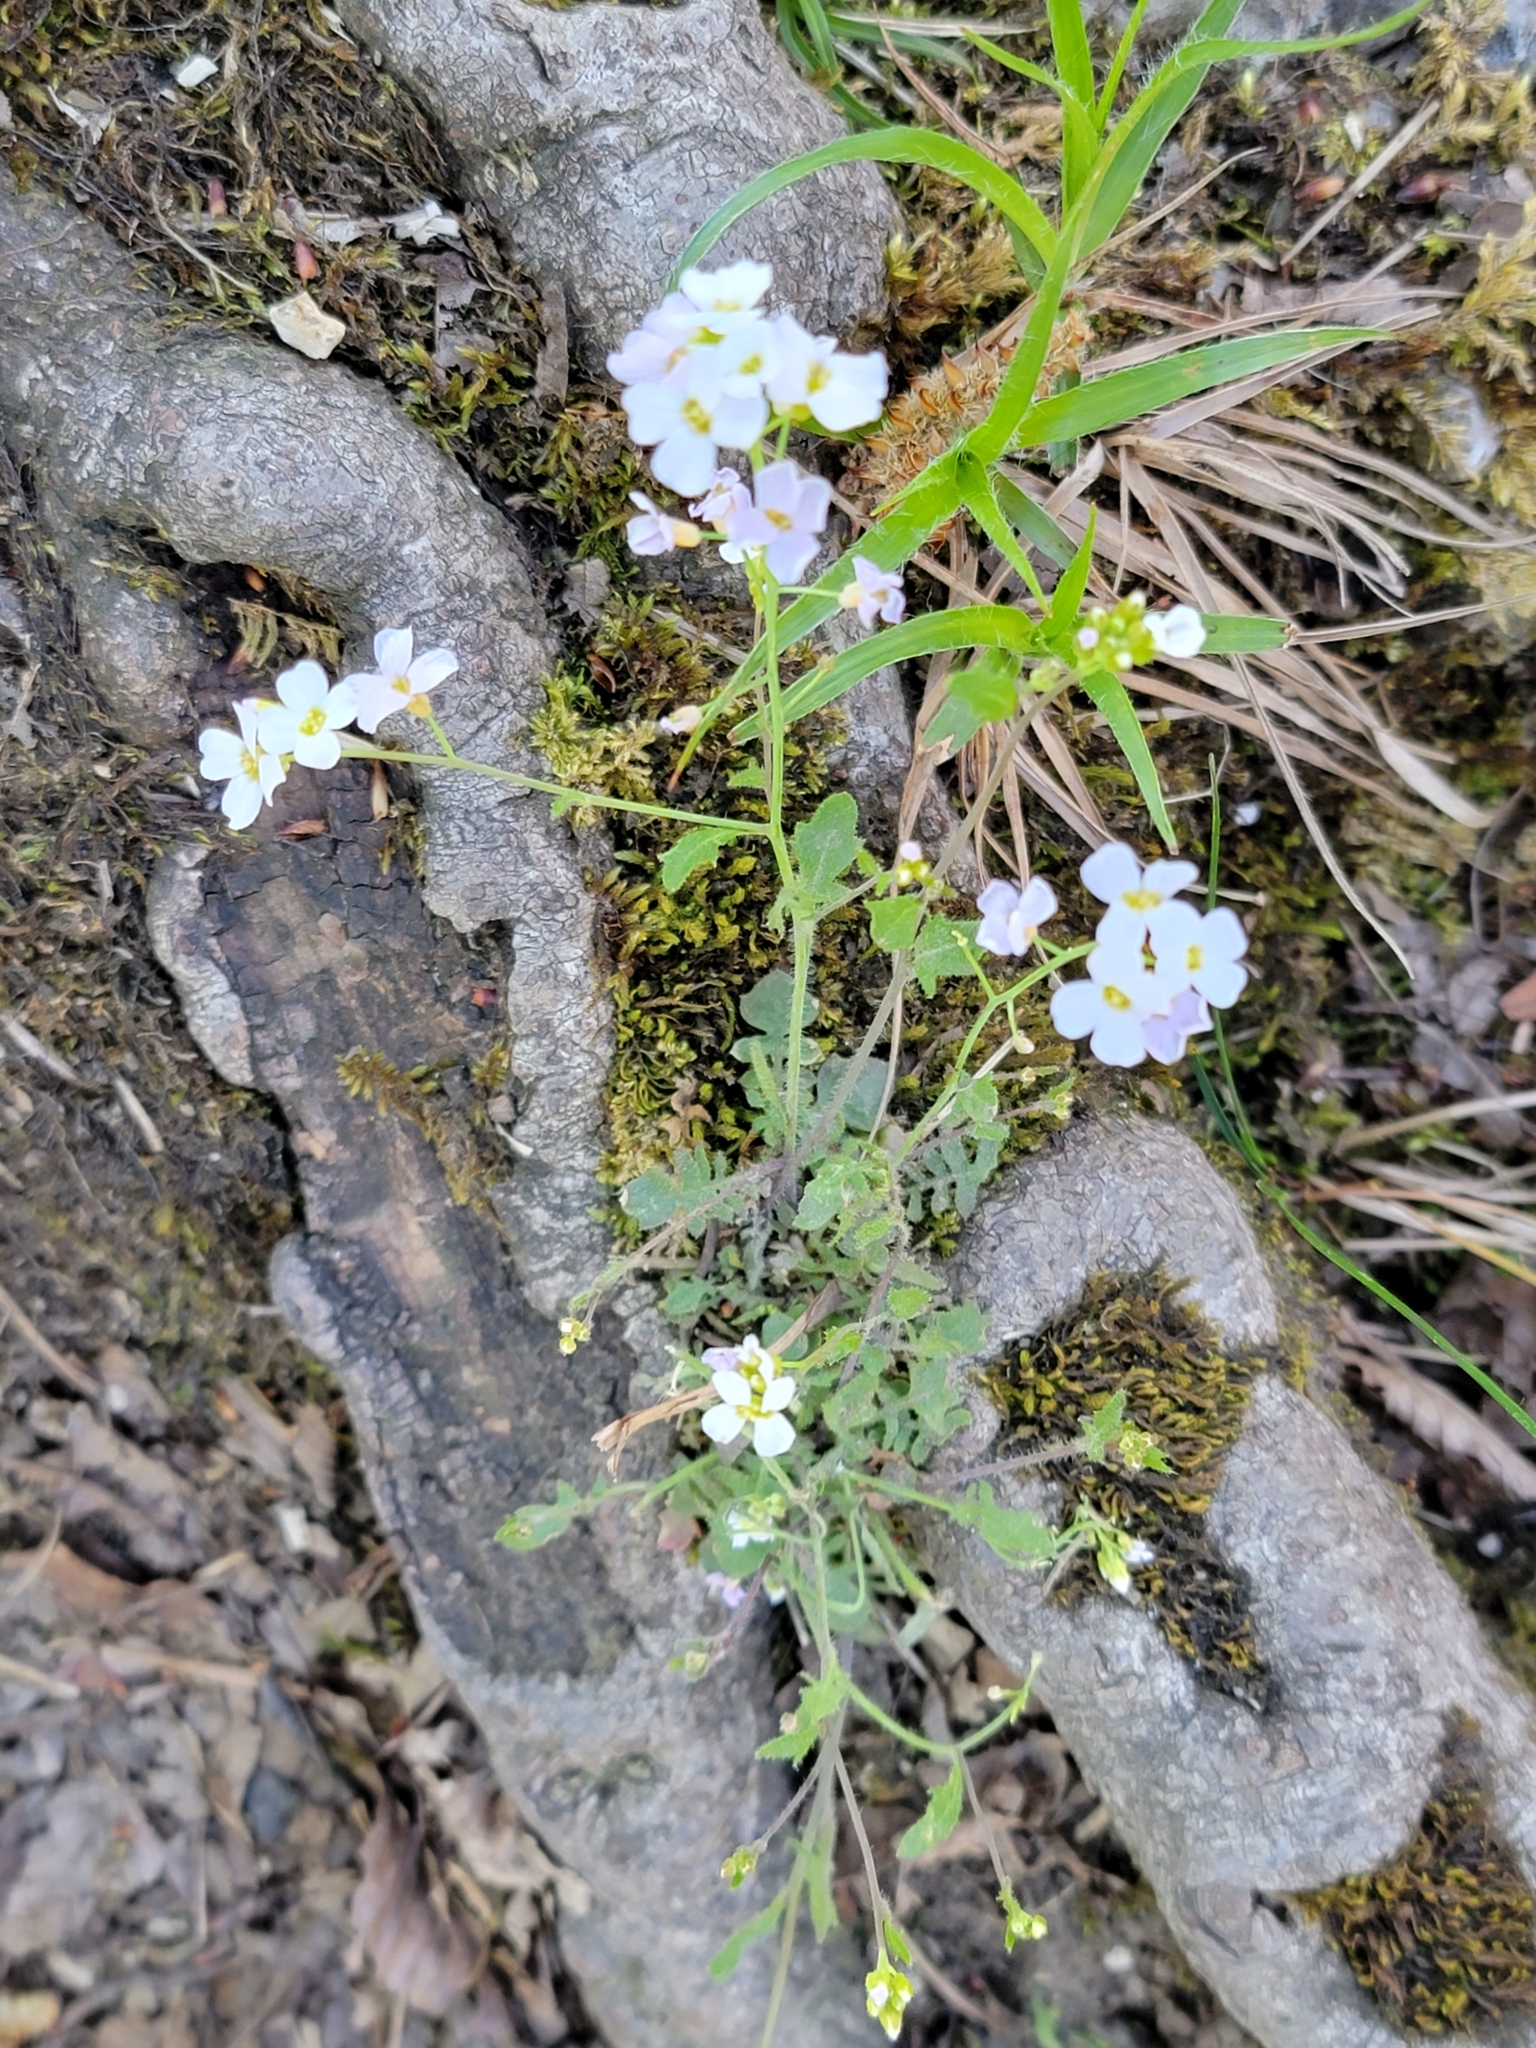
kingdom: Plantae
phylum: Tracheophyta
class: Magnoliopsida
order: Brassicales
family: Brassicaceae
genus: Arabidopsis
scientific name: Arabidopsis arenosa
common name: Sand rock-cress
